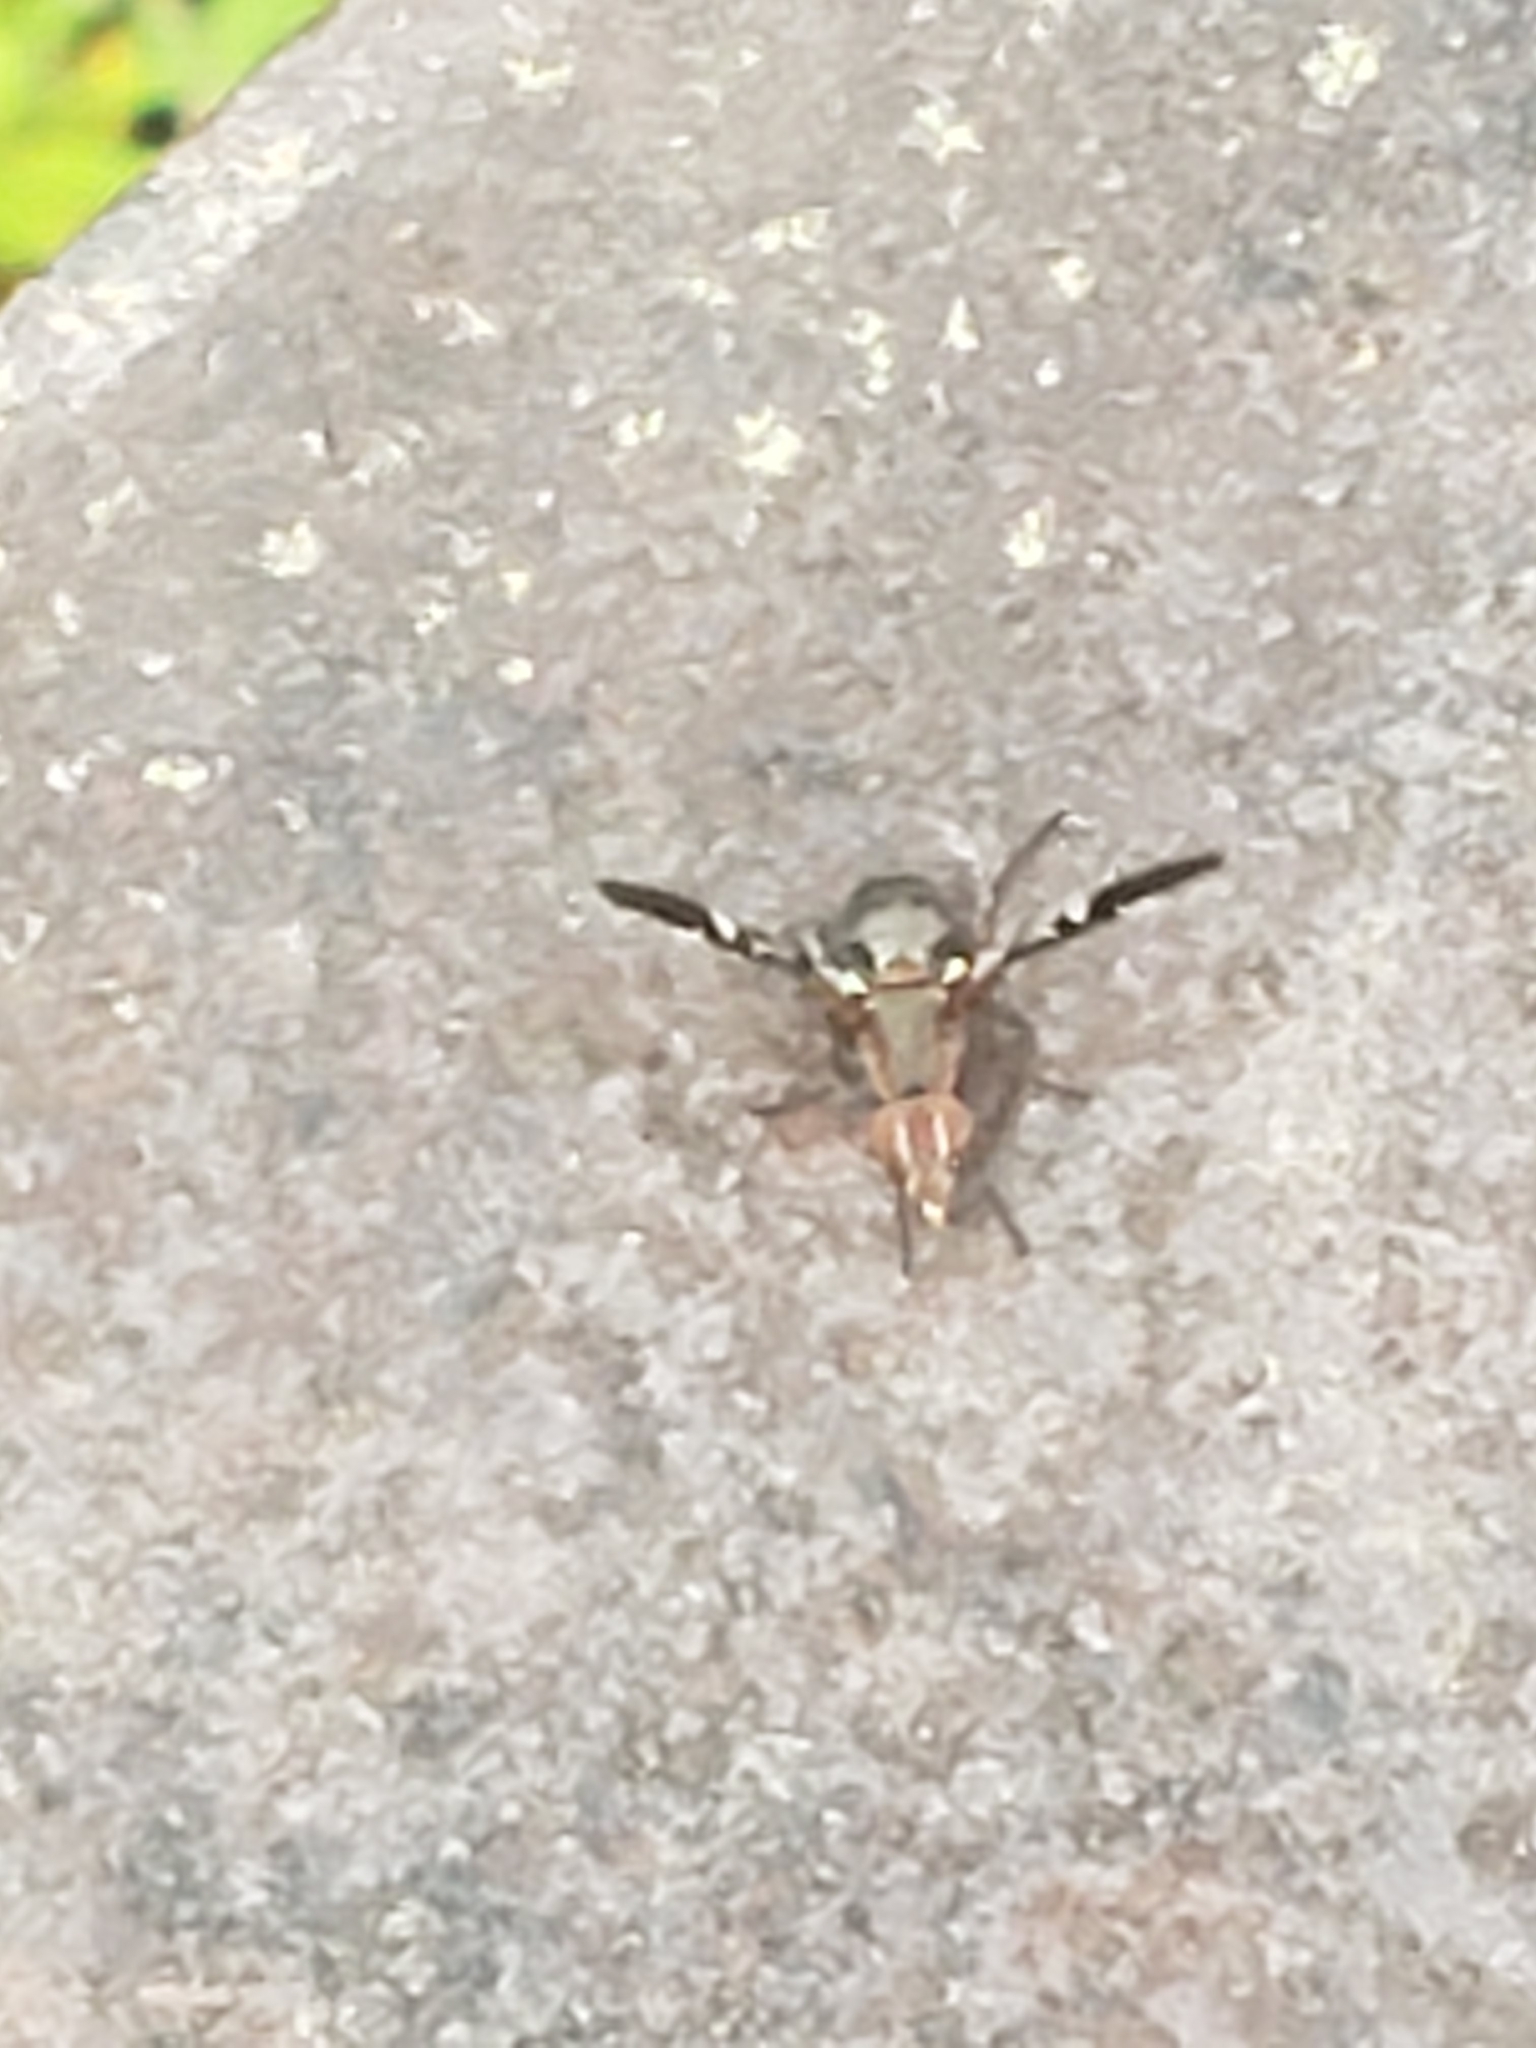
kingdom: Animalia
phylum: Arthropoda
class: Insecta
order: Diptera
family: Ulidiidae
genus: Delphinia
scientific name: Delphinia picta
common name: Common picture-winged fly
